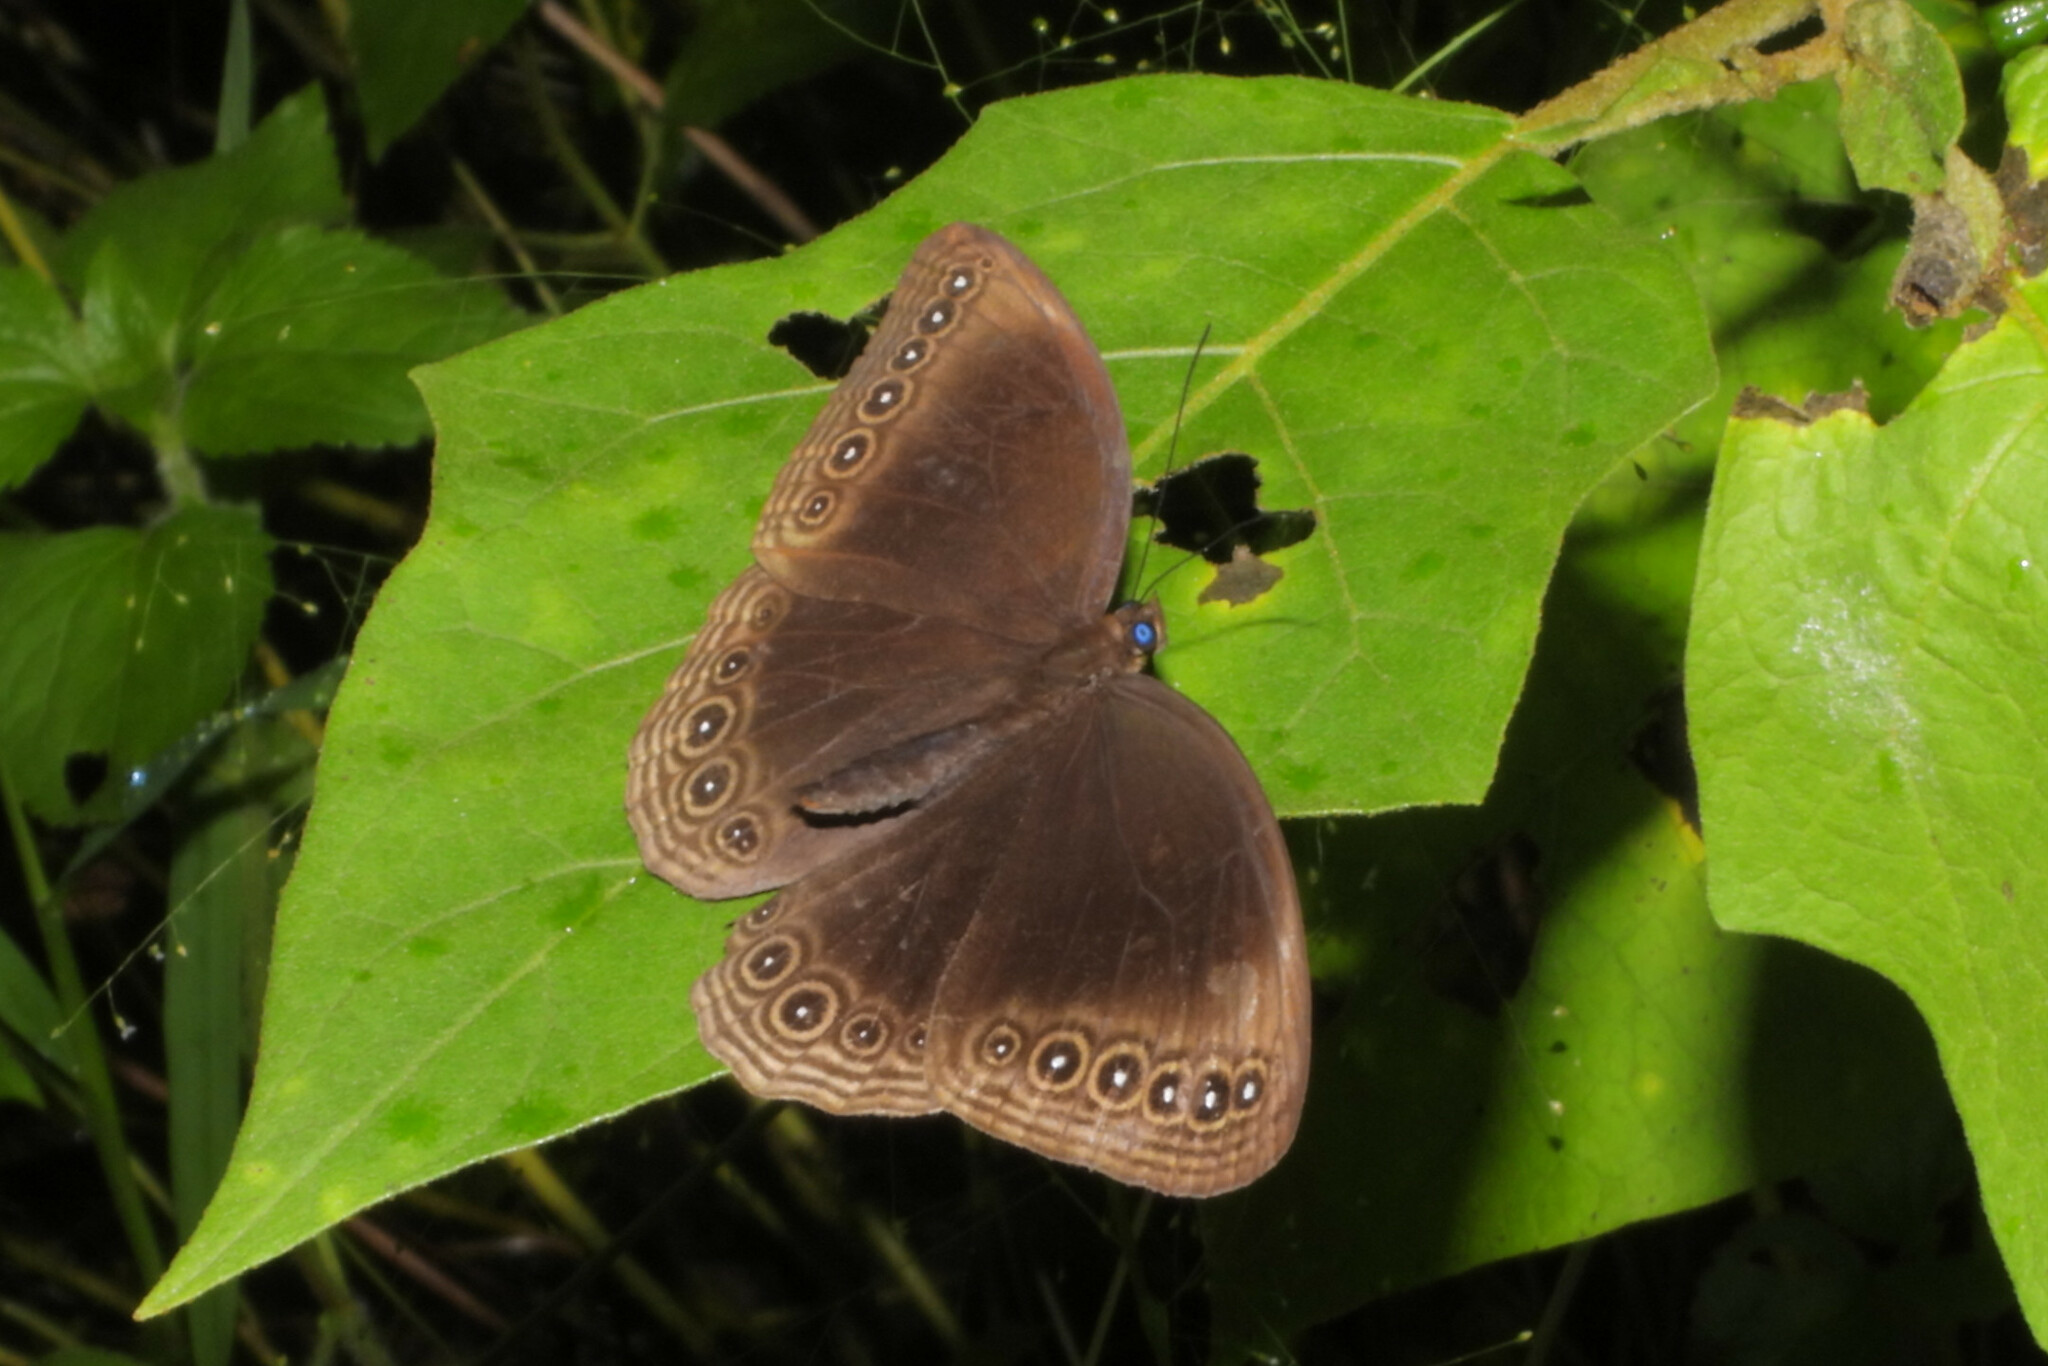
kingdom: Animalia
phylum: Arthropoda
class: Insecta
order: Lepidoptera
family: Nymphalidae
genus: Ethope
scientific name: Ethope himachala
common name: Dusky diadem
